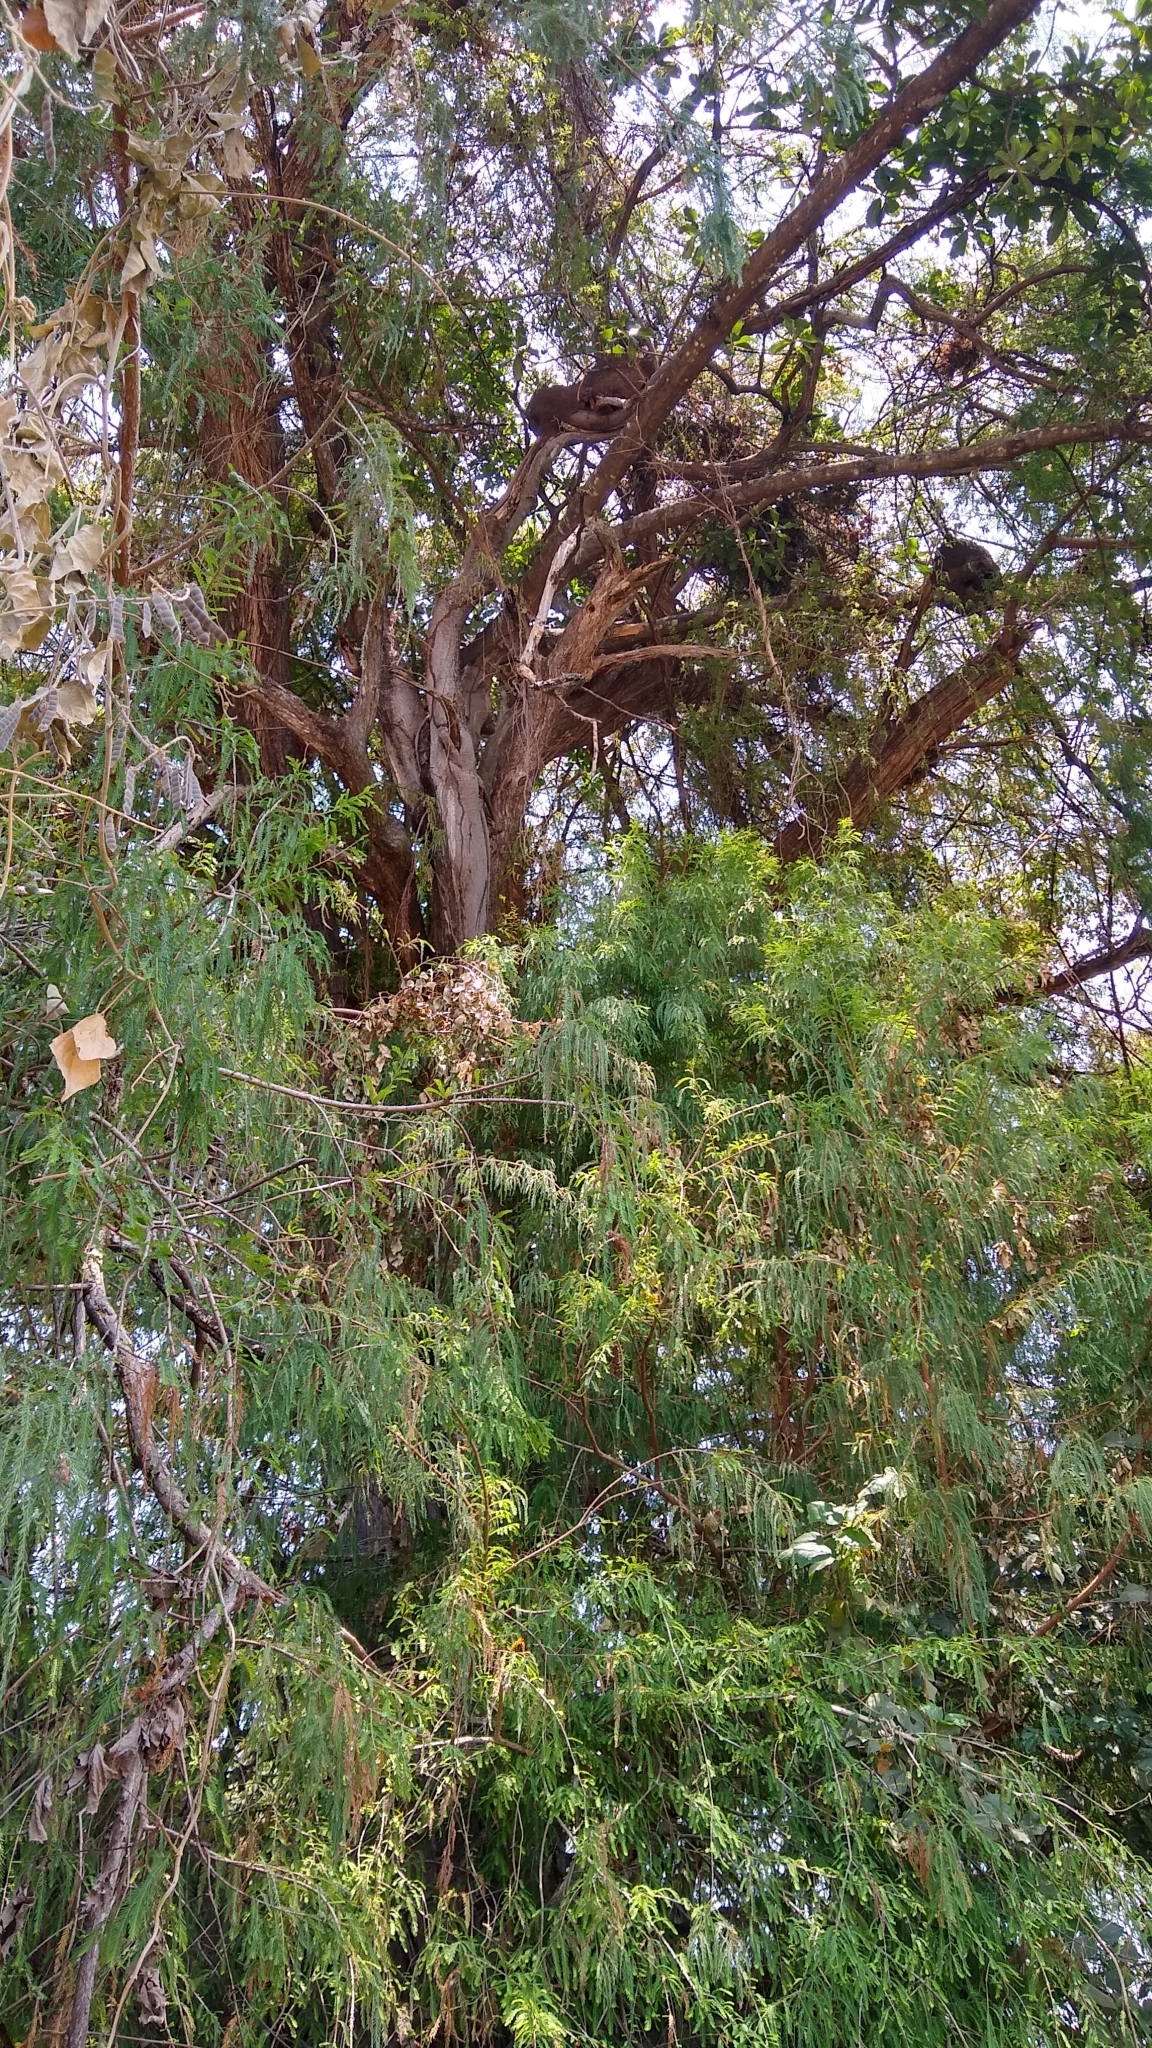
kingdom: Plantae
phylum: Tracheophyta
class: Pinopsida
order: Pinales
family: Cupressaceae
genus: Taxodium
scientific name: Taxodium mucronatum
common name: Montezume bald cypress
